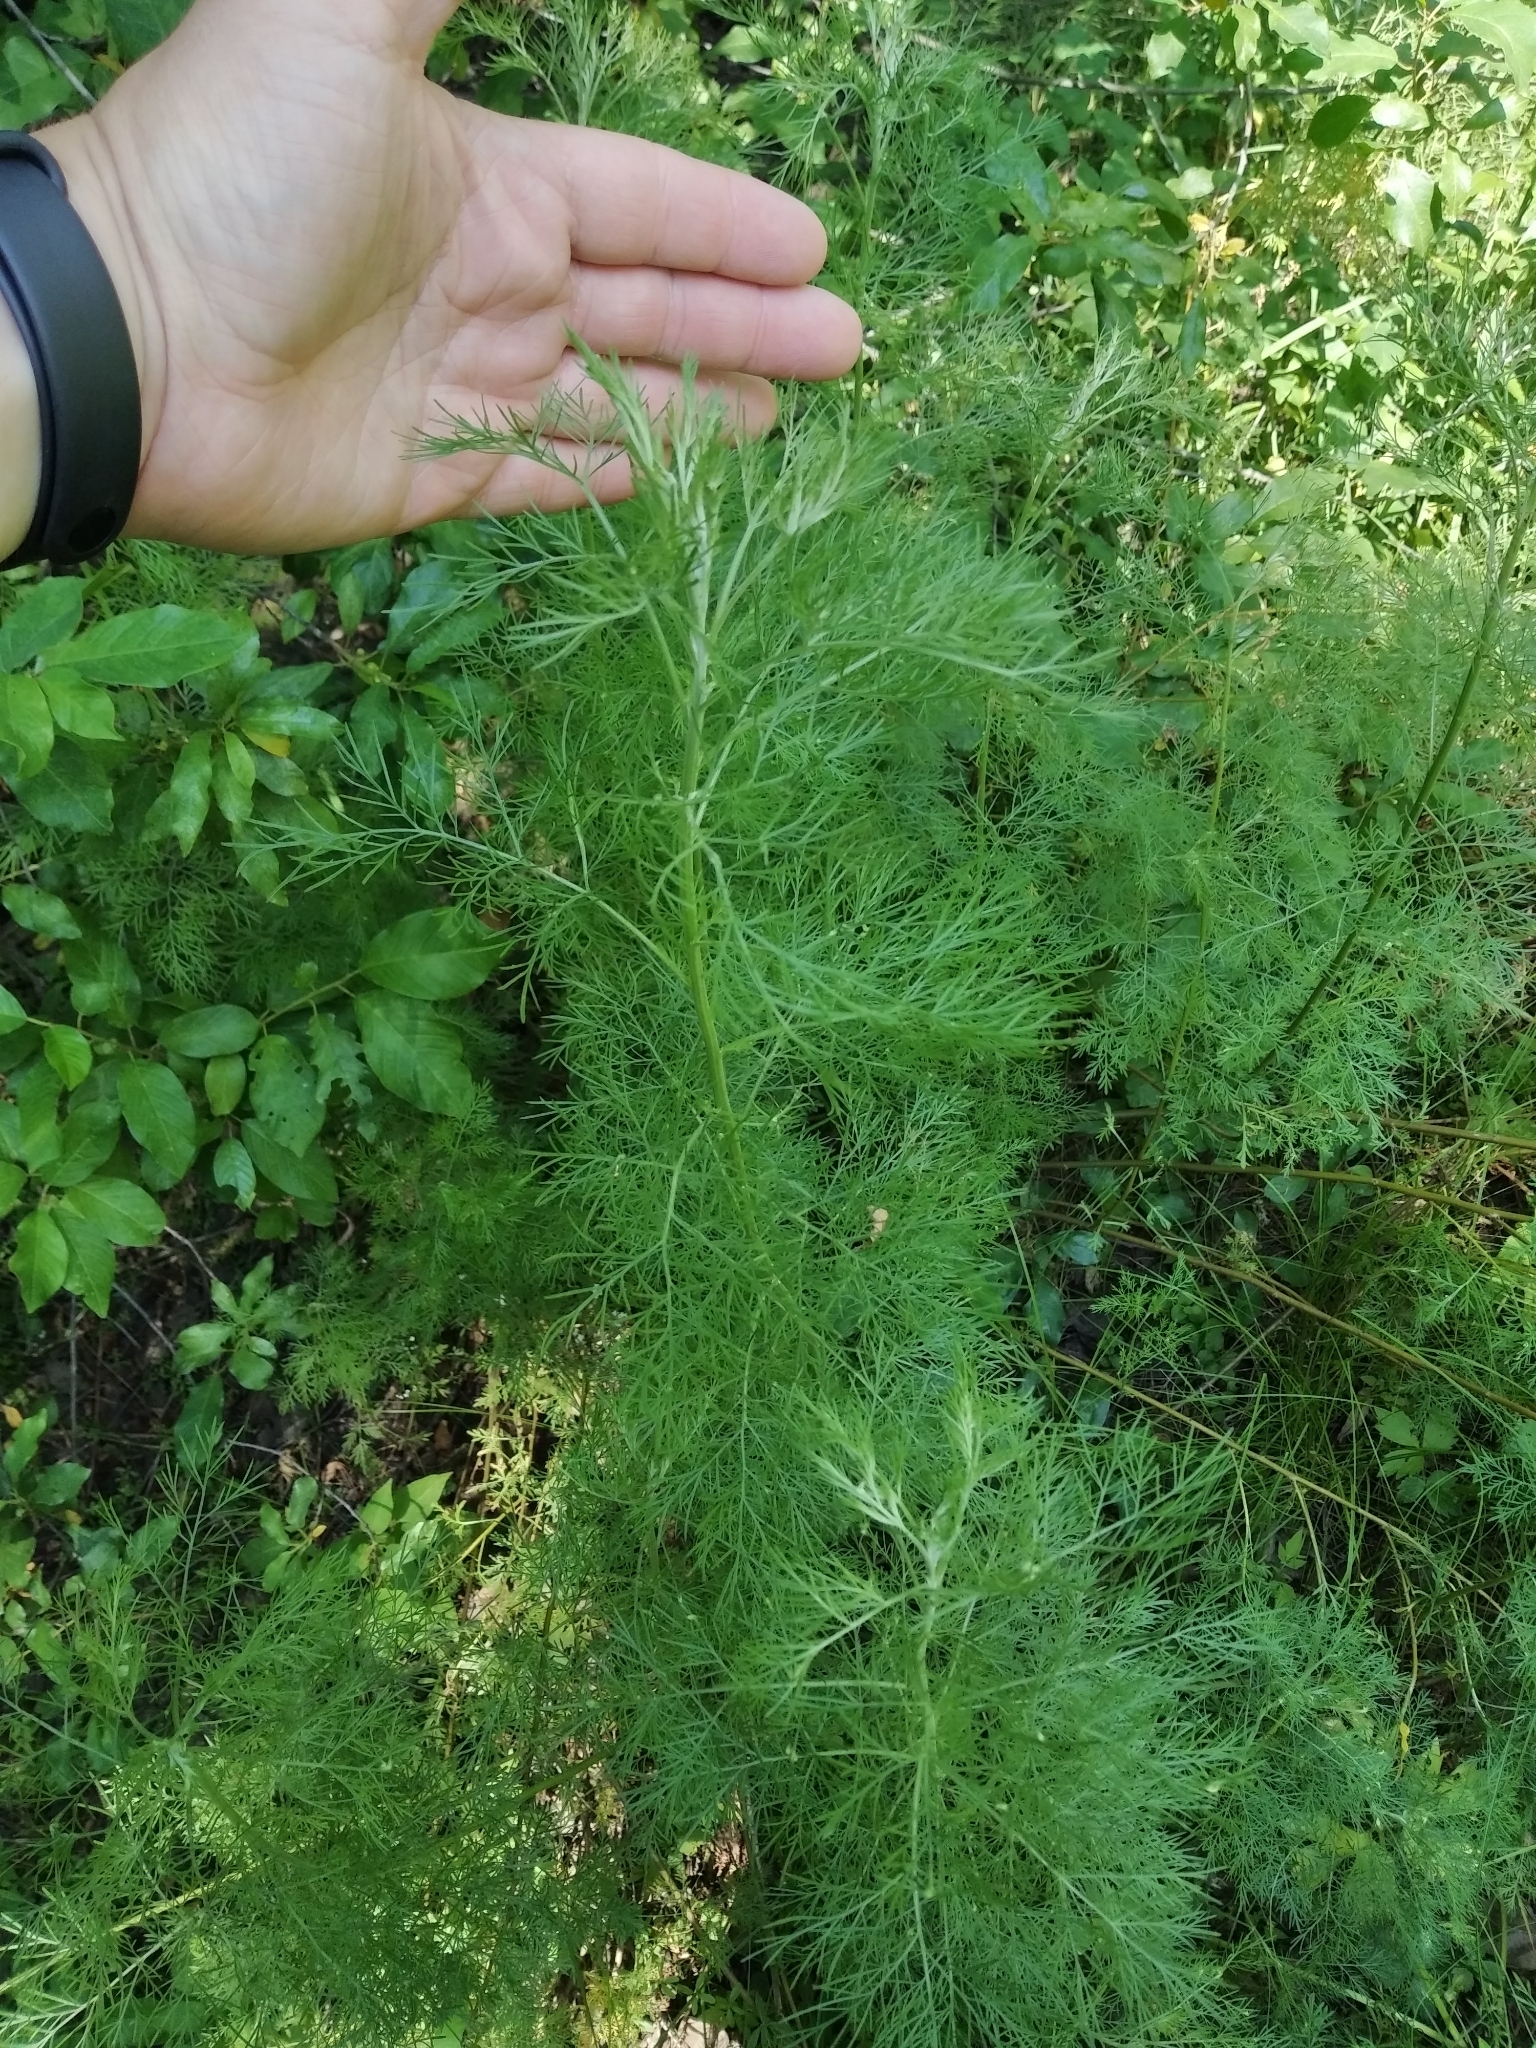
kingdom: Plantae
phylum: Tracheophyta
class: Magnoliopsida
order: Asterales
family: Asteraceae
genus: Eupatorium
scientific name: Eupatorium capillifolium
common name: Dog-fennel
